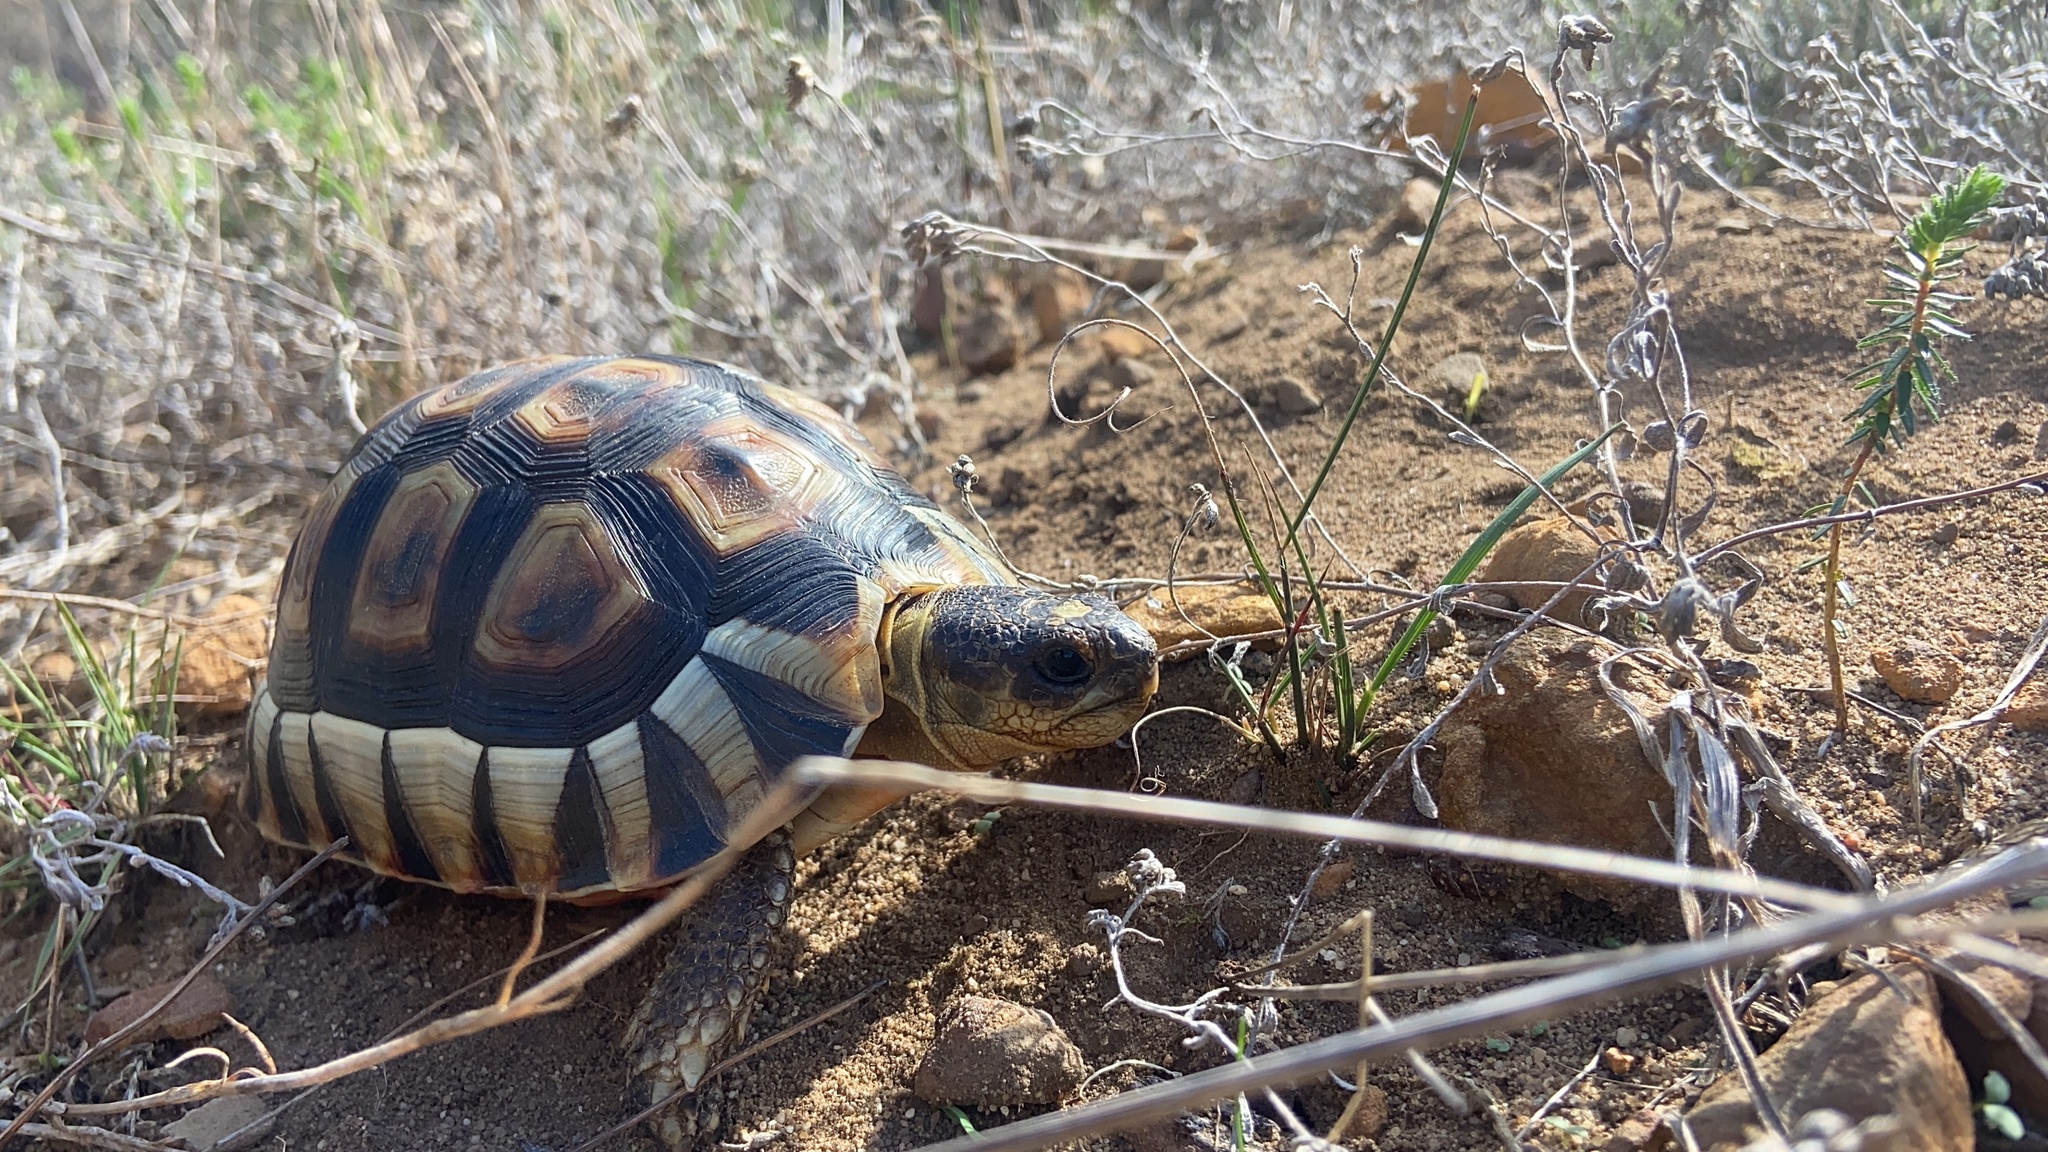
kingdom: Animalia
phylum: Chordata
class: Testudines
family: Testudinidae
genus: Chersina
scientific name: Chersina angulata
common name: South african bowsprit tortoise
